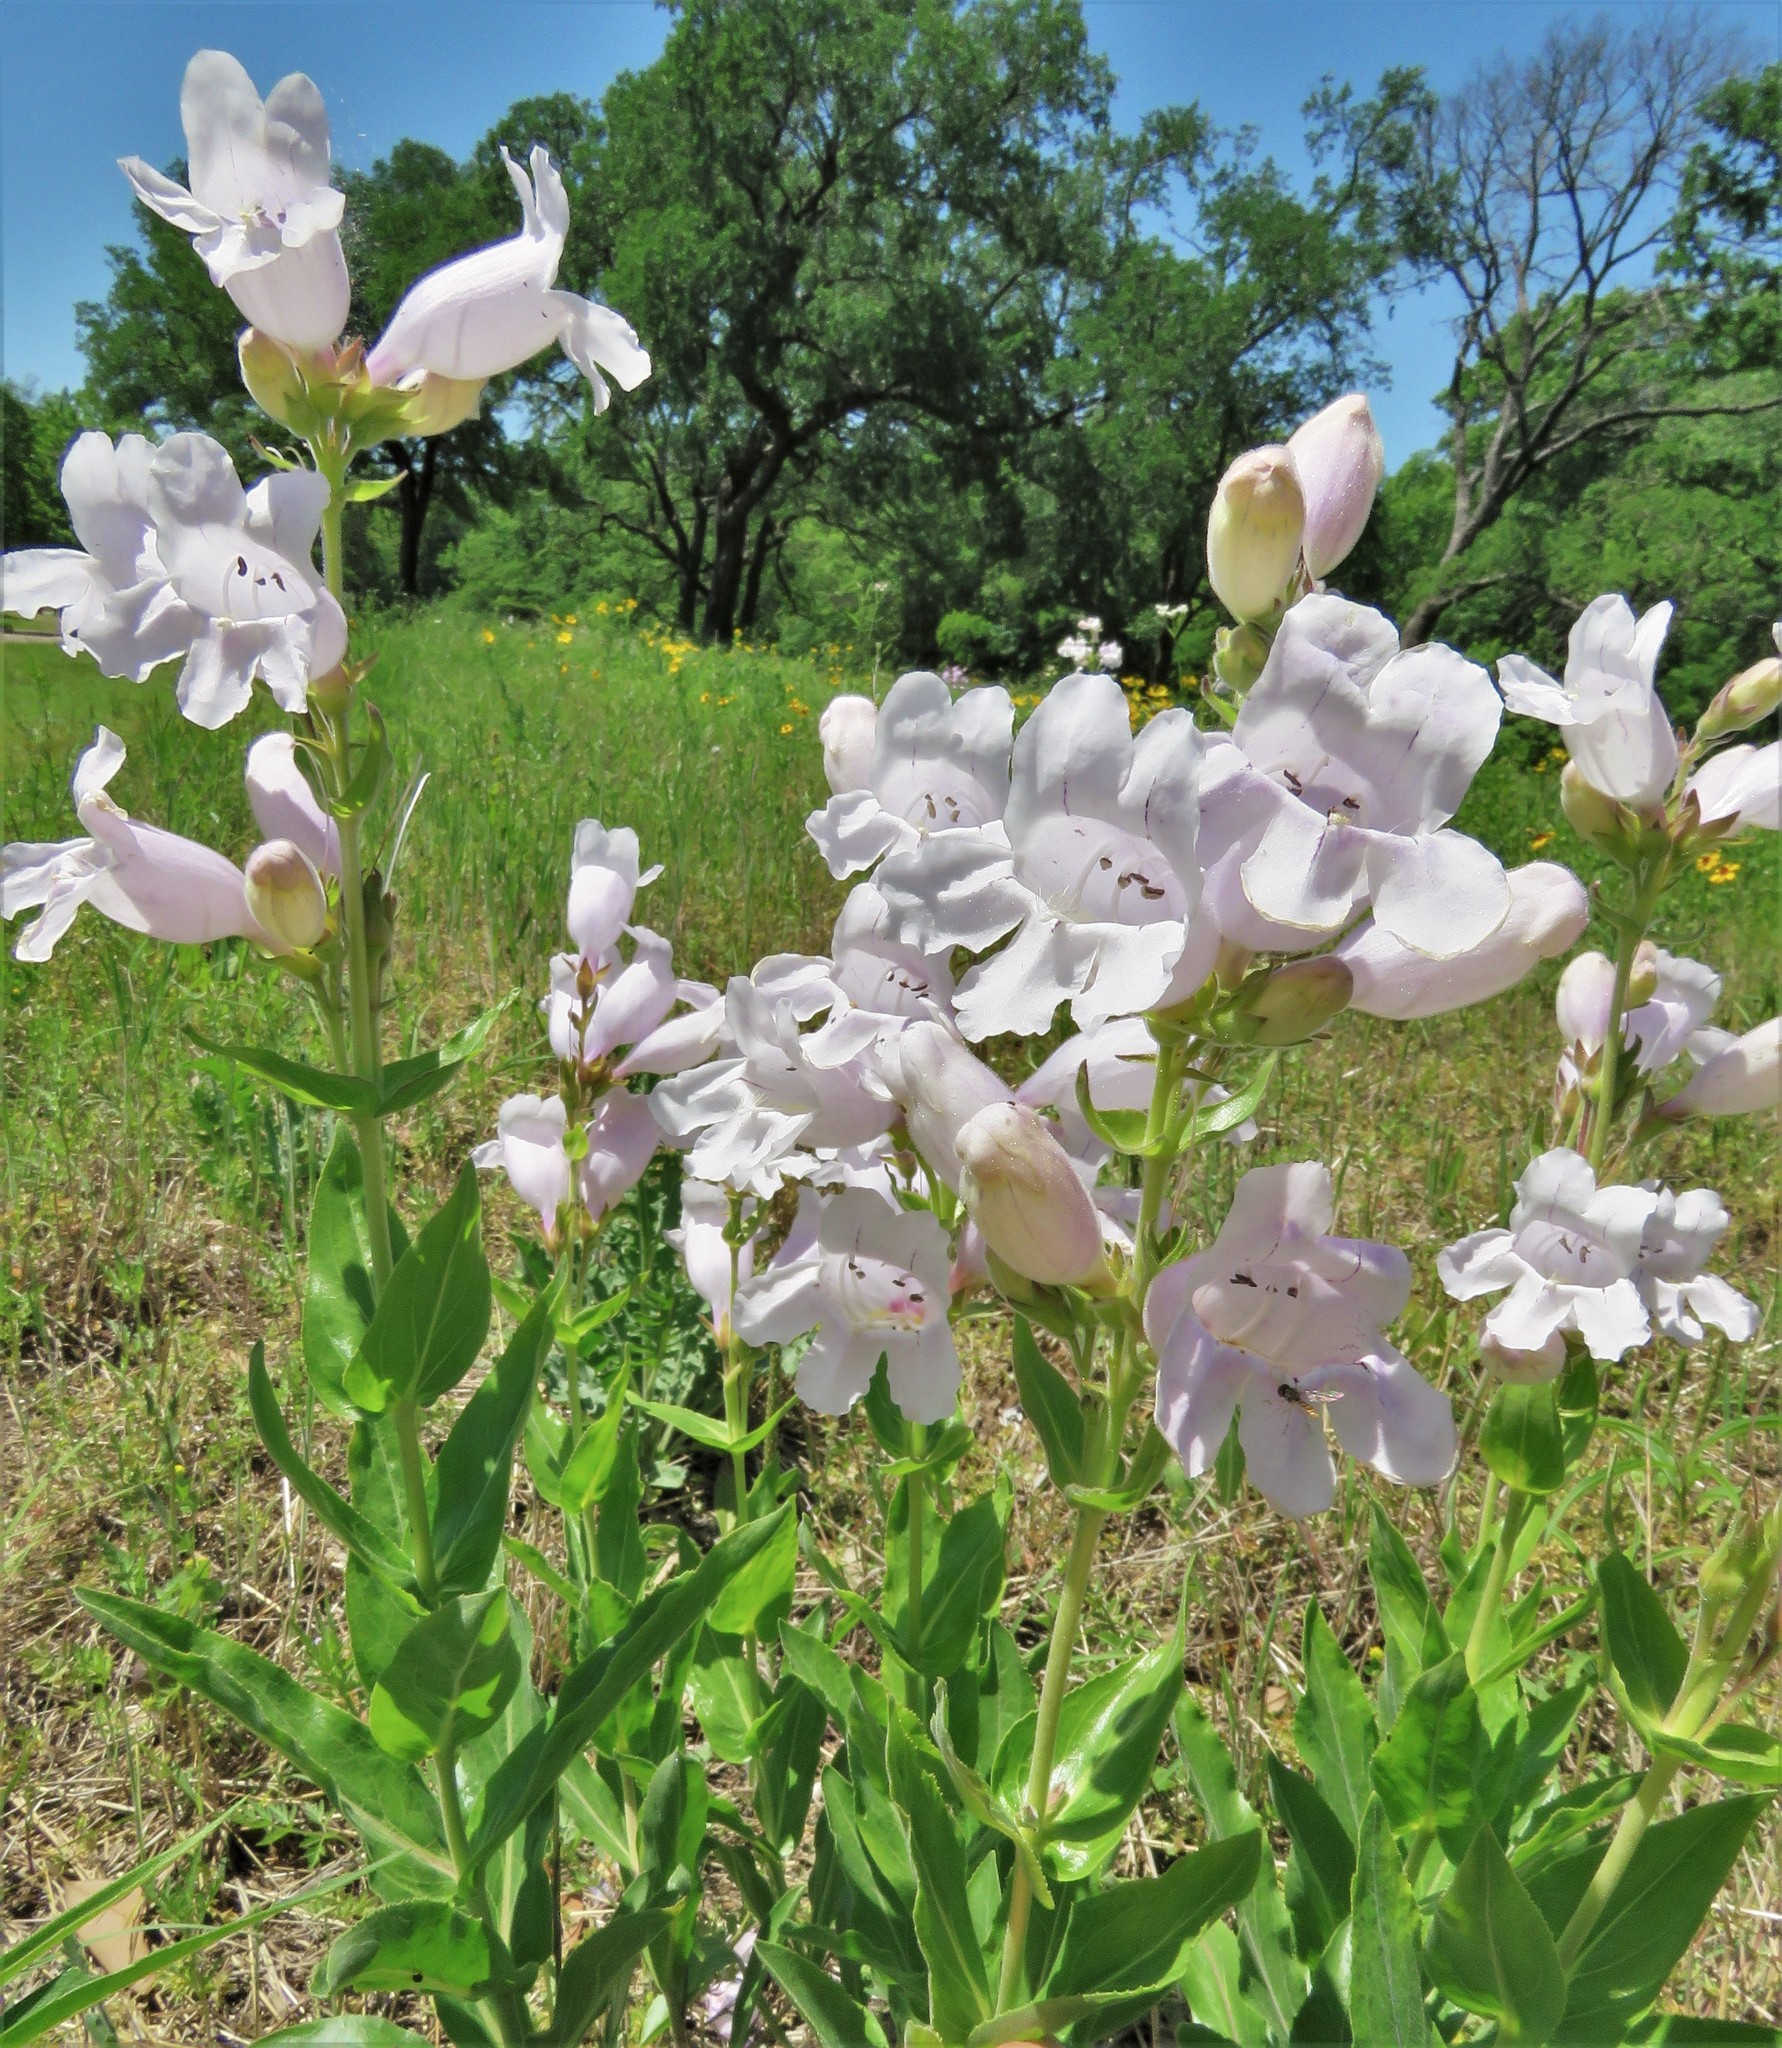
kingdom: Plantae
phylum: Tracheophyta
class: Magnoliopsida
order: Lamiales
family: Plantaginaceae
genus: Penstemon
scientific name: Penstemon cobaea
